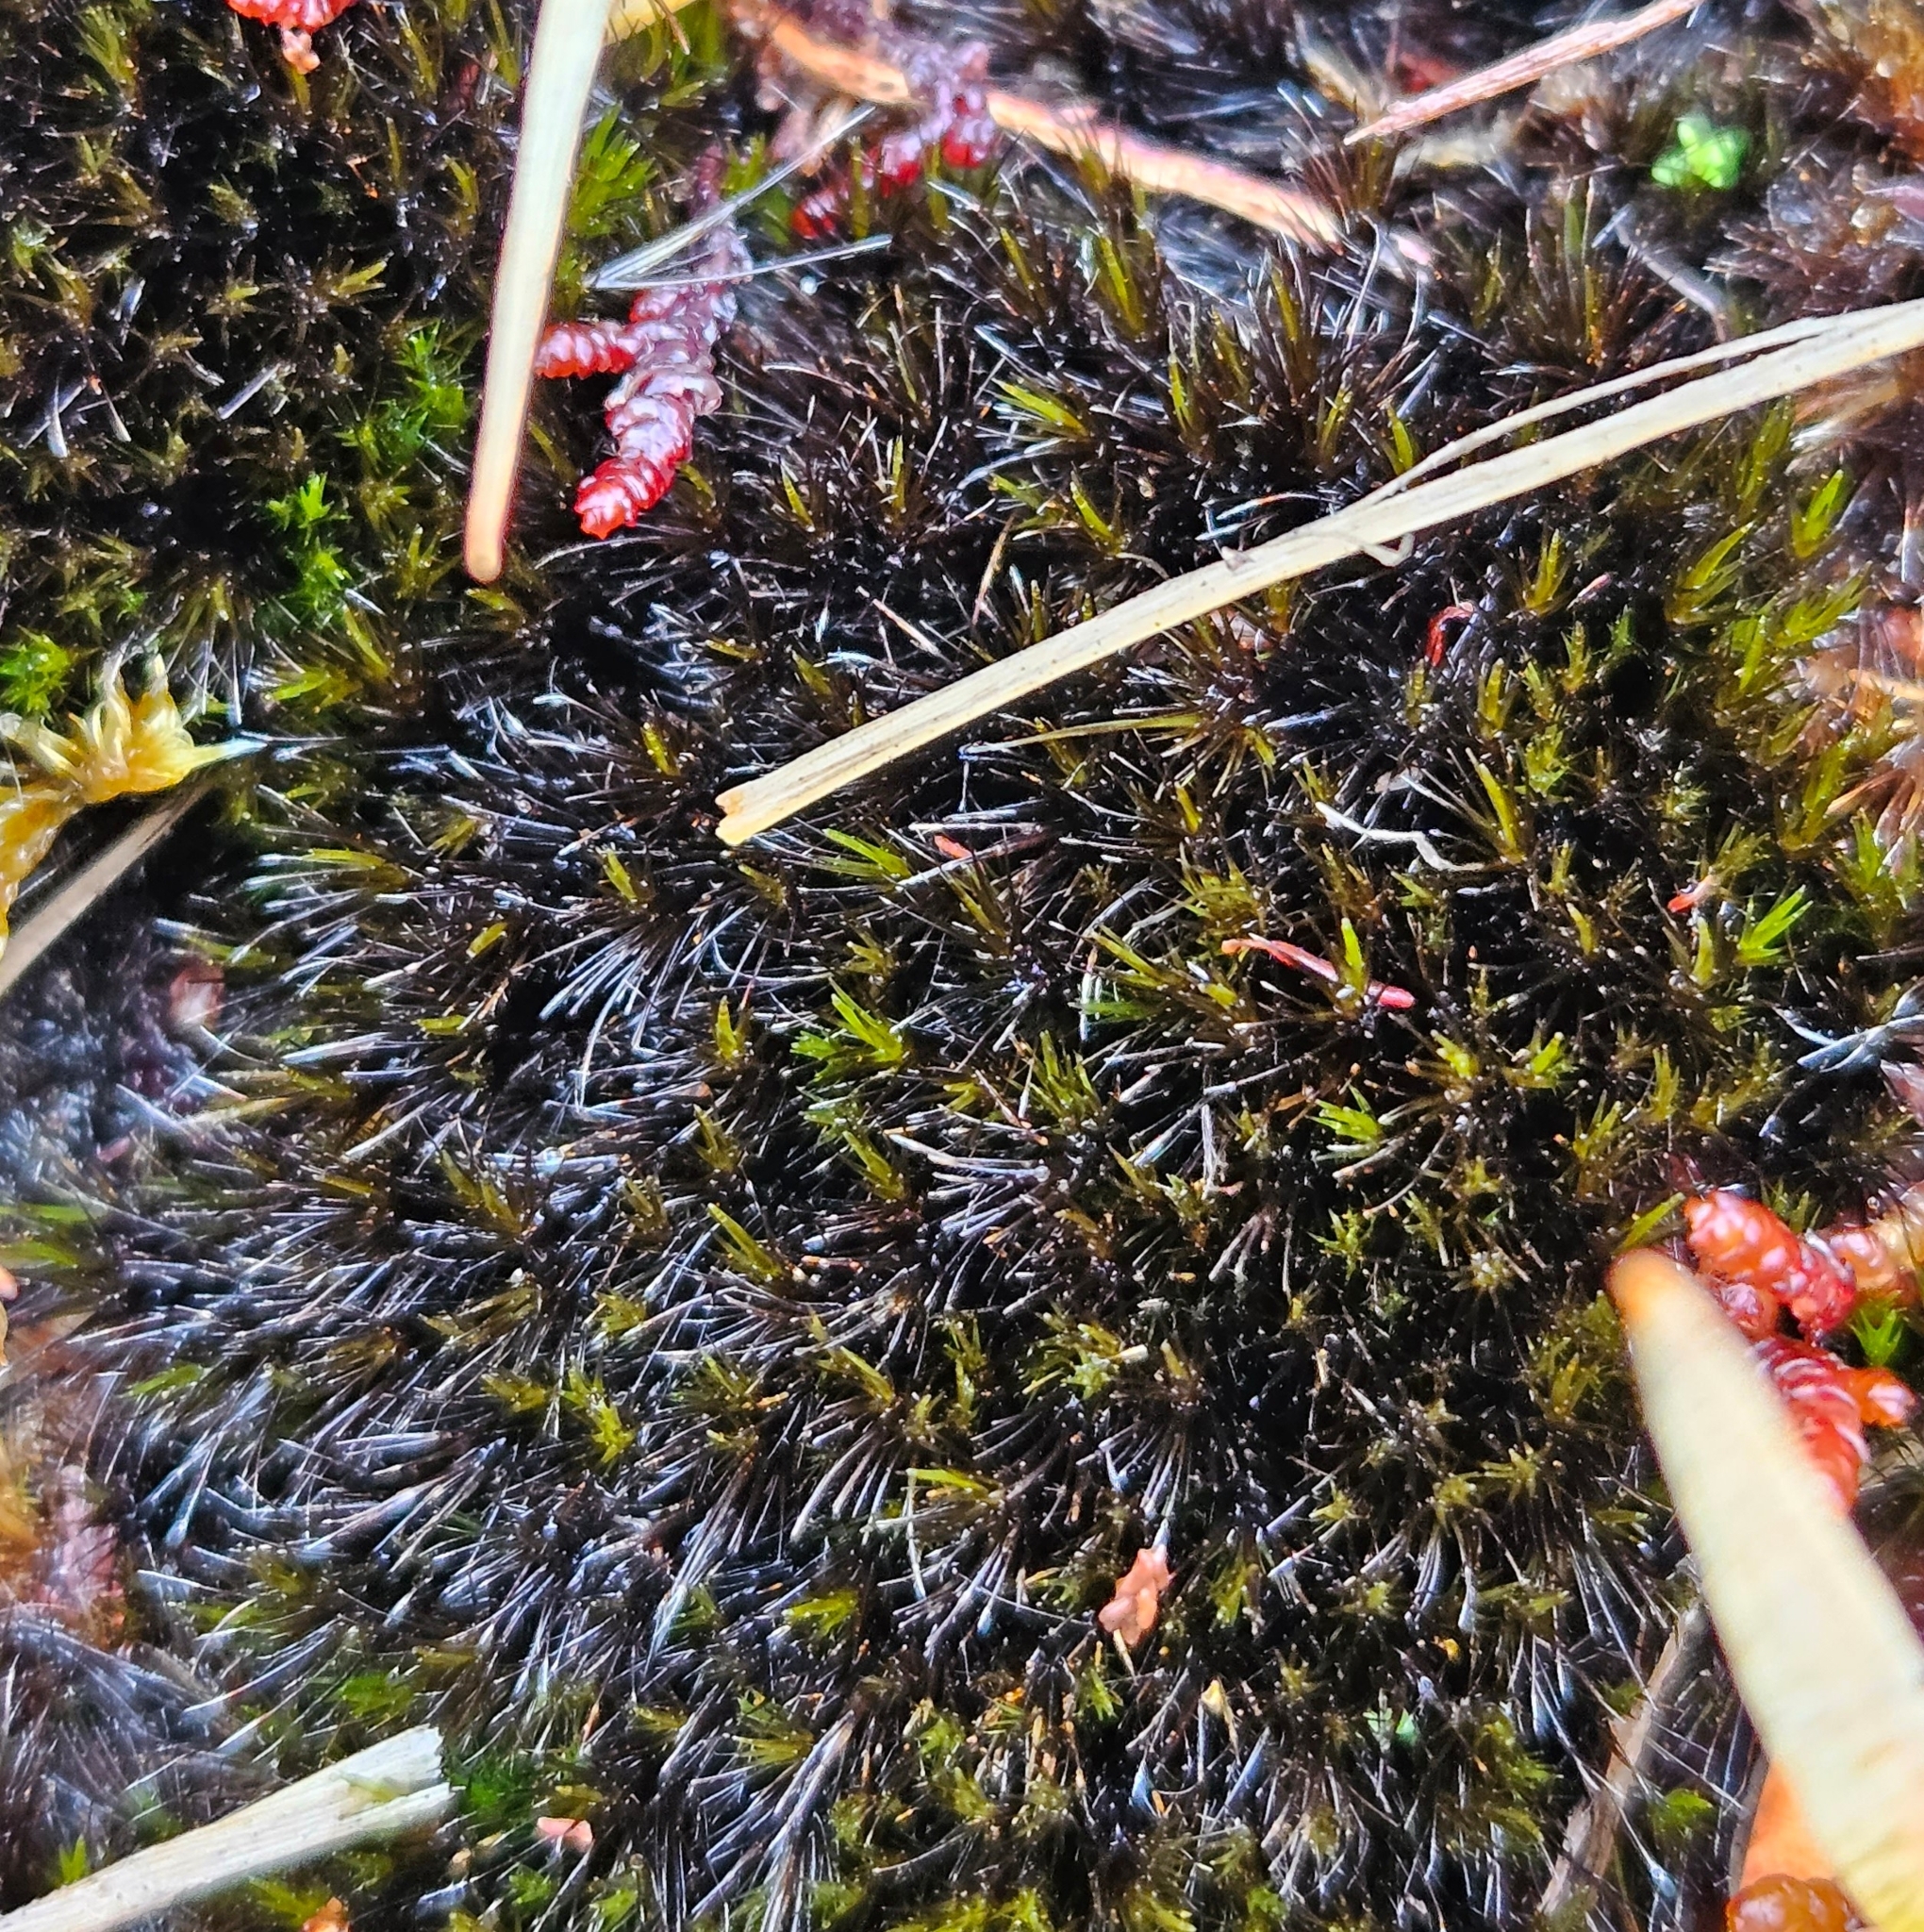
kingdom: Plantae
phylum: Bryophyta
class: Bryopsida
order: Dicranales
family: Leucobryaceae
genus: Campylopus
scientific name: Campylopus atrovirens
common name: Bristly swan-neck moss
